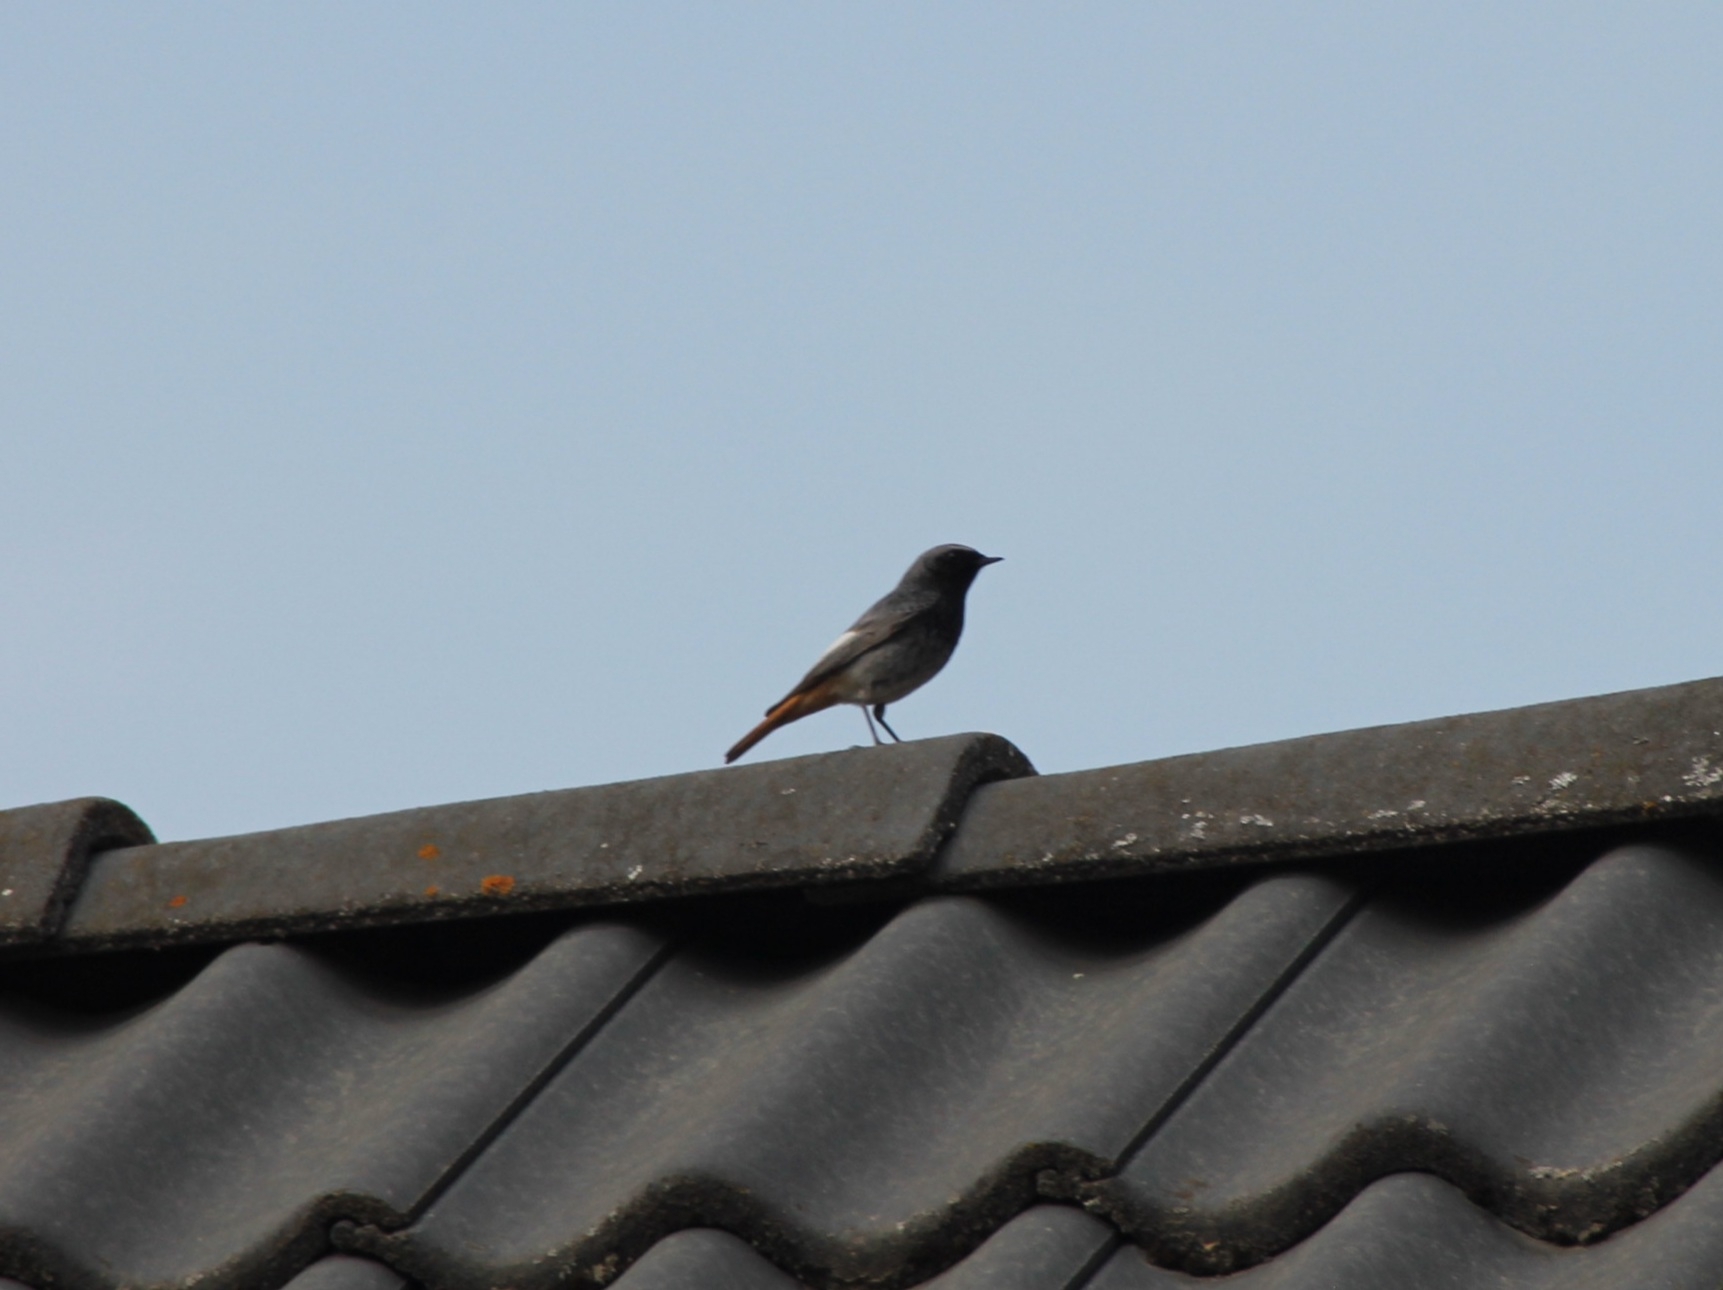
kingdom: Animalia
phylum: Chordata
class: Aves
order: Passeriformes
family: Muscicapidae
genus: Phoenicurus
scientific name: Phoenicurus ochruros
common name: Black redstart
